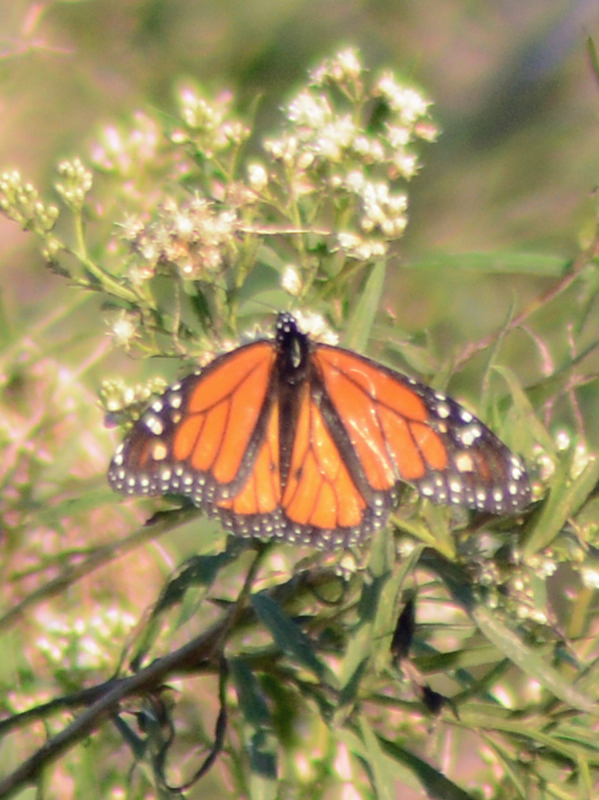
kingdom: Animalia
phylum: Arthropoda
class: Insecta
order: Lepidoptera
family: Nymphalidae
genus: Danaus
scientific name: Danaus plexippus
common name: Monarch
